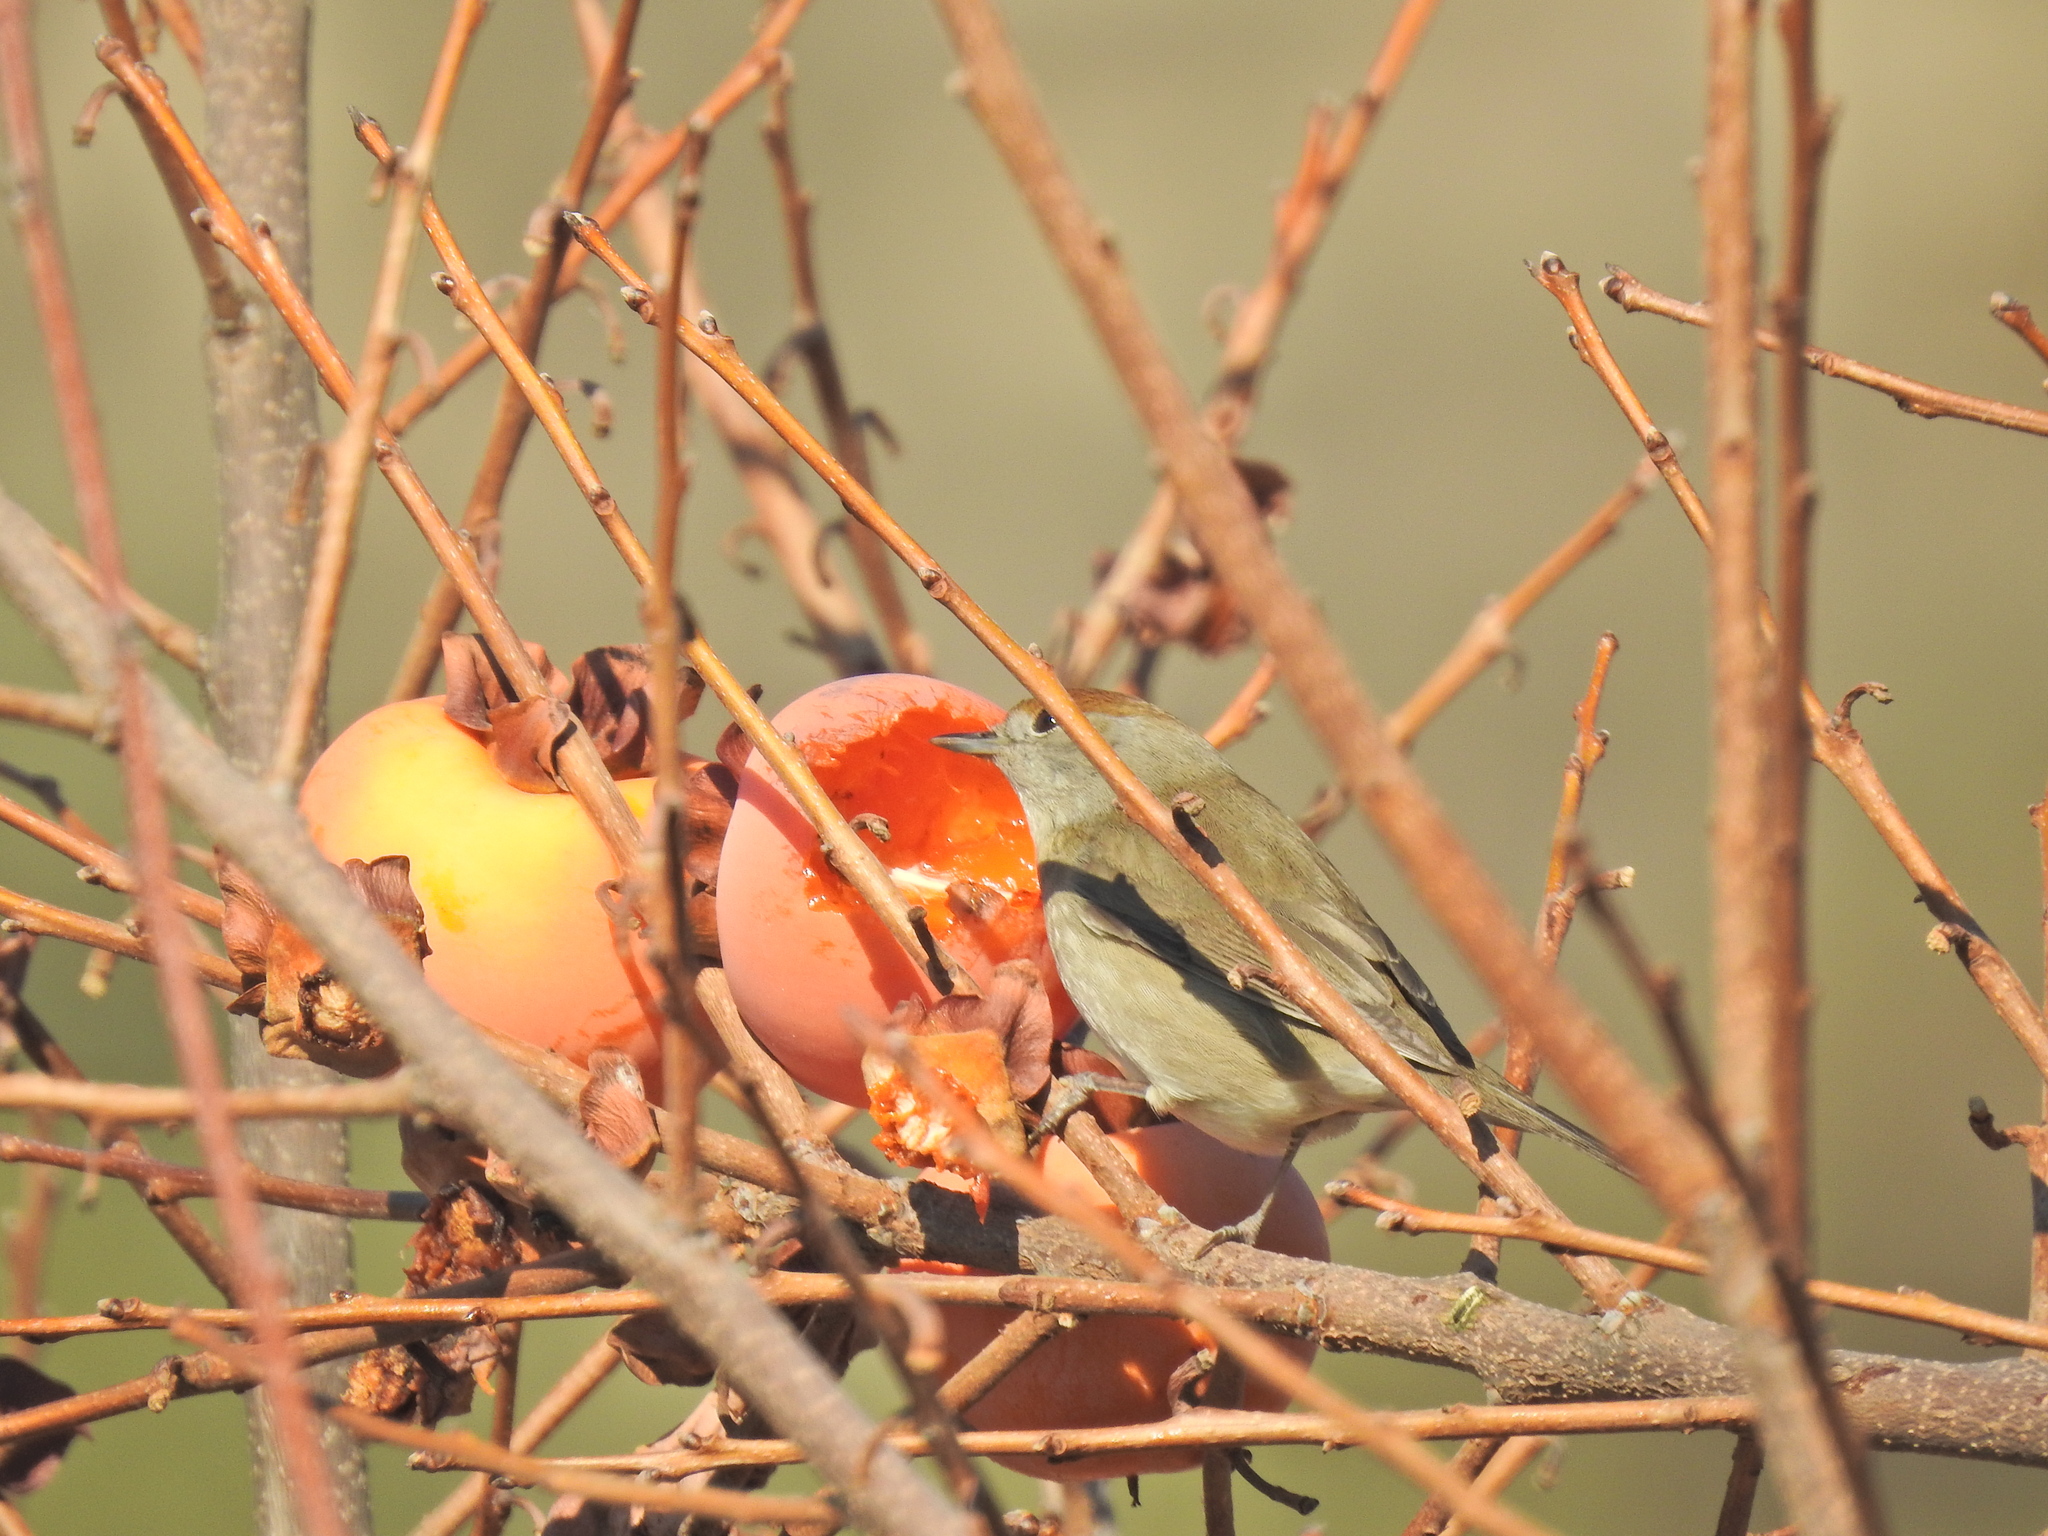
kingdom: Animalia
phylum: Chordata
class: Aves
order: Passeriformes
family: Sylviidae
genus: Sylvia
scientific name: Sylvia atricapilla
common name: Eurasian blackcap
